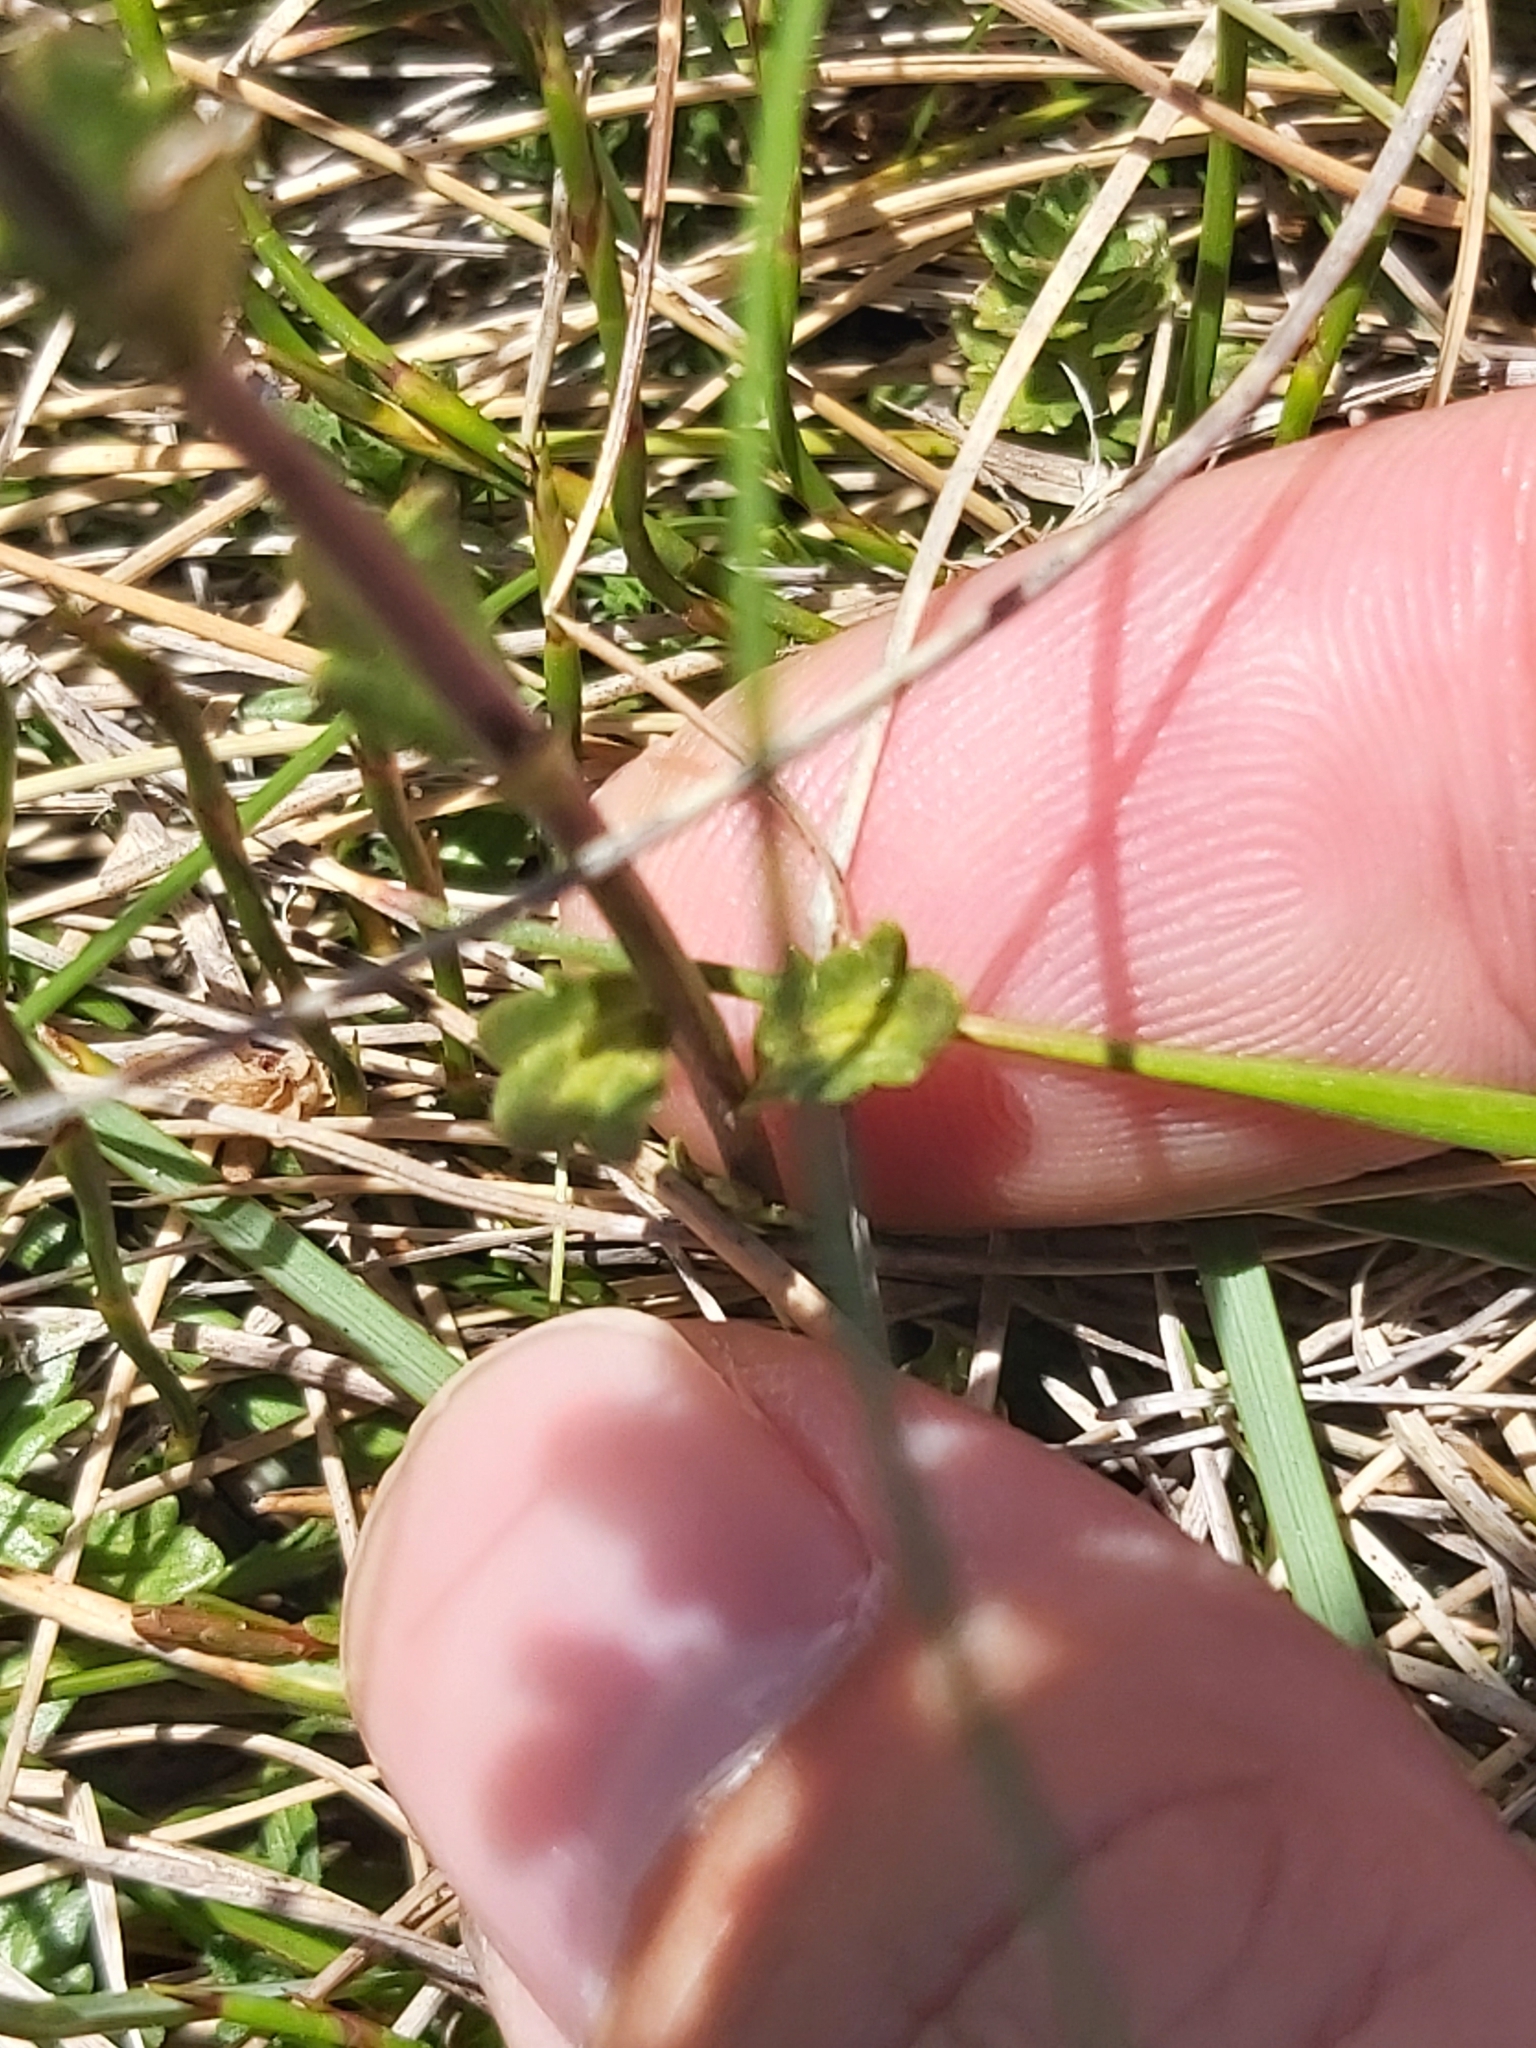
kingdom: Plantae
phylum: Tracheophyta
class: Magnoliopsida
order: Lamiales
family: Orobanchaceae
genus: Euphrasia
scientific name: Euphrasia collina
